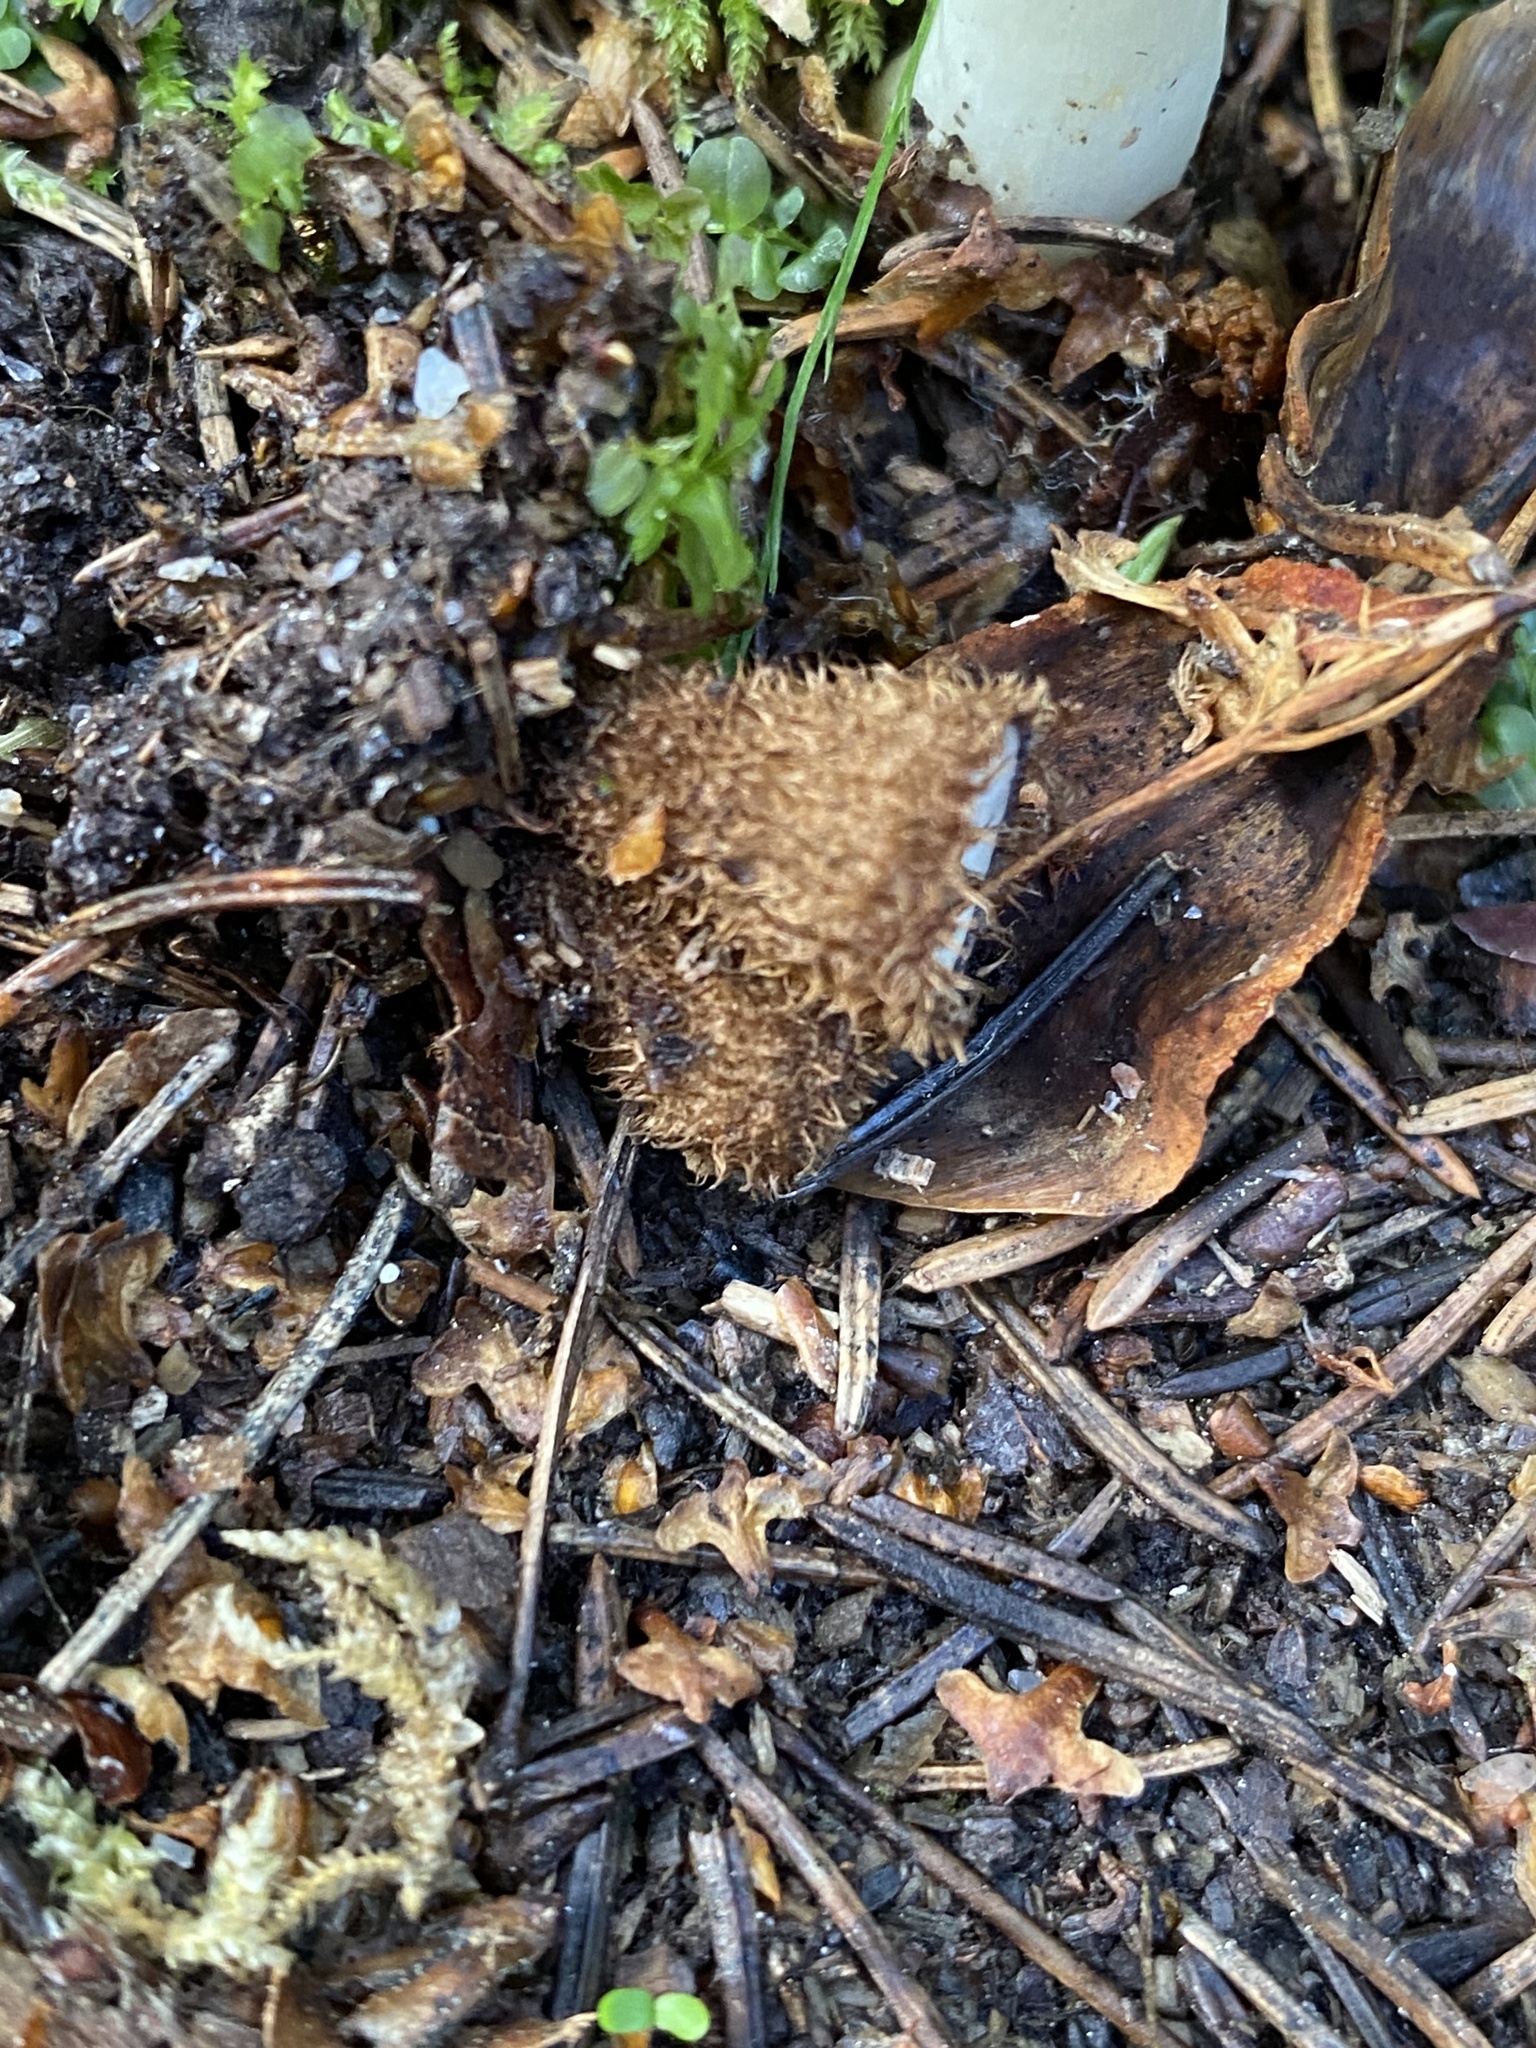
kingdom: Fungi
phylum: Basidiomycota
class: Agaricomycetes
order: Agaricales
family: Agaricaceae
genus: Cyathus
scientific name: Cyathus striatus
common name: Fluted bird's nest
